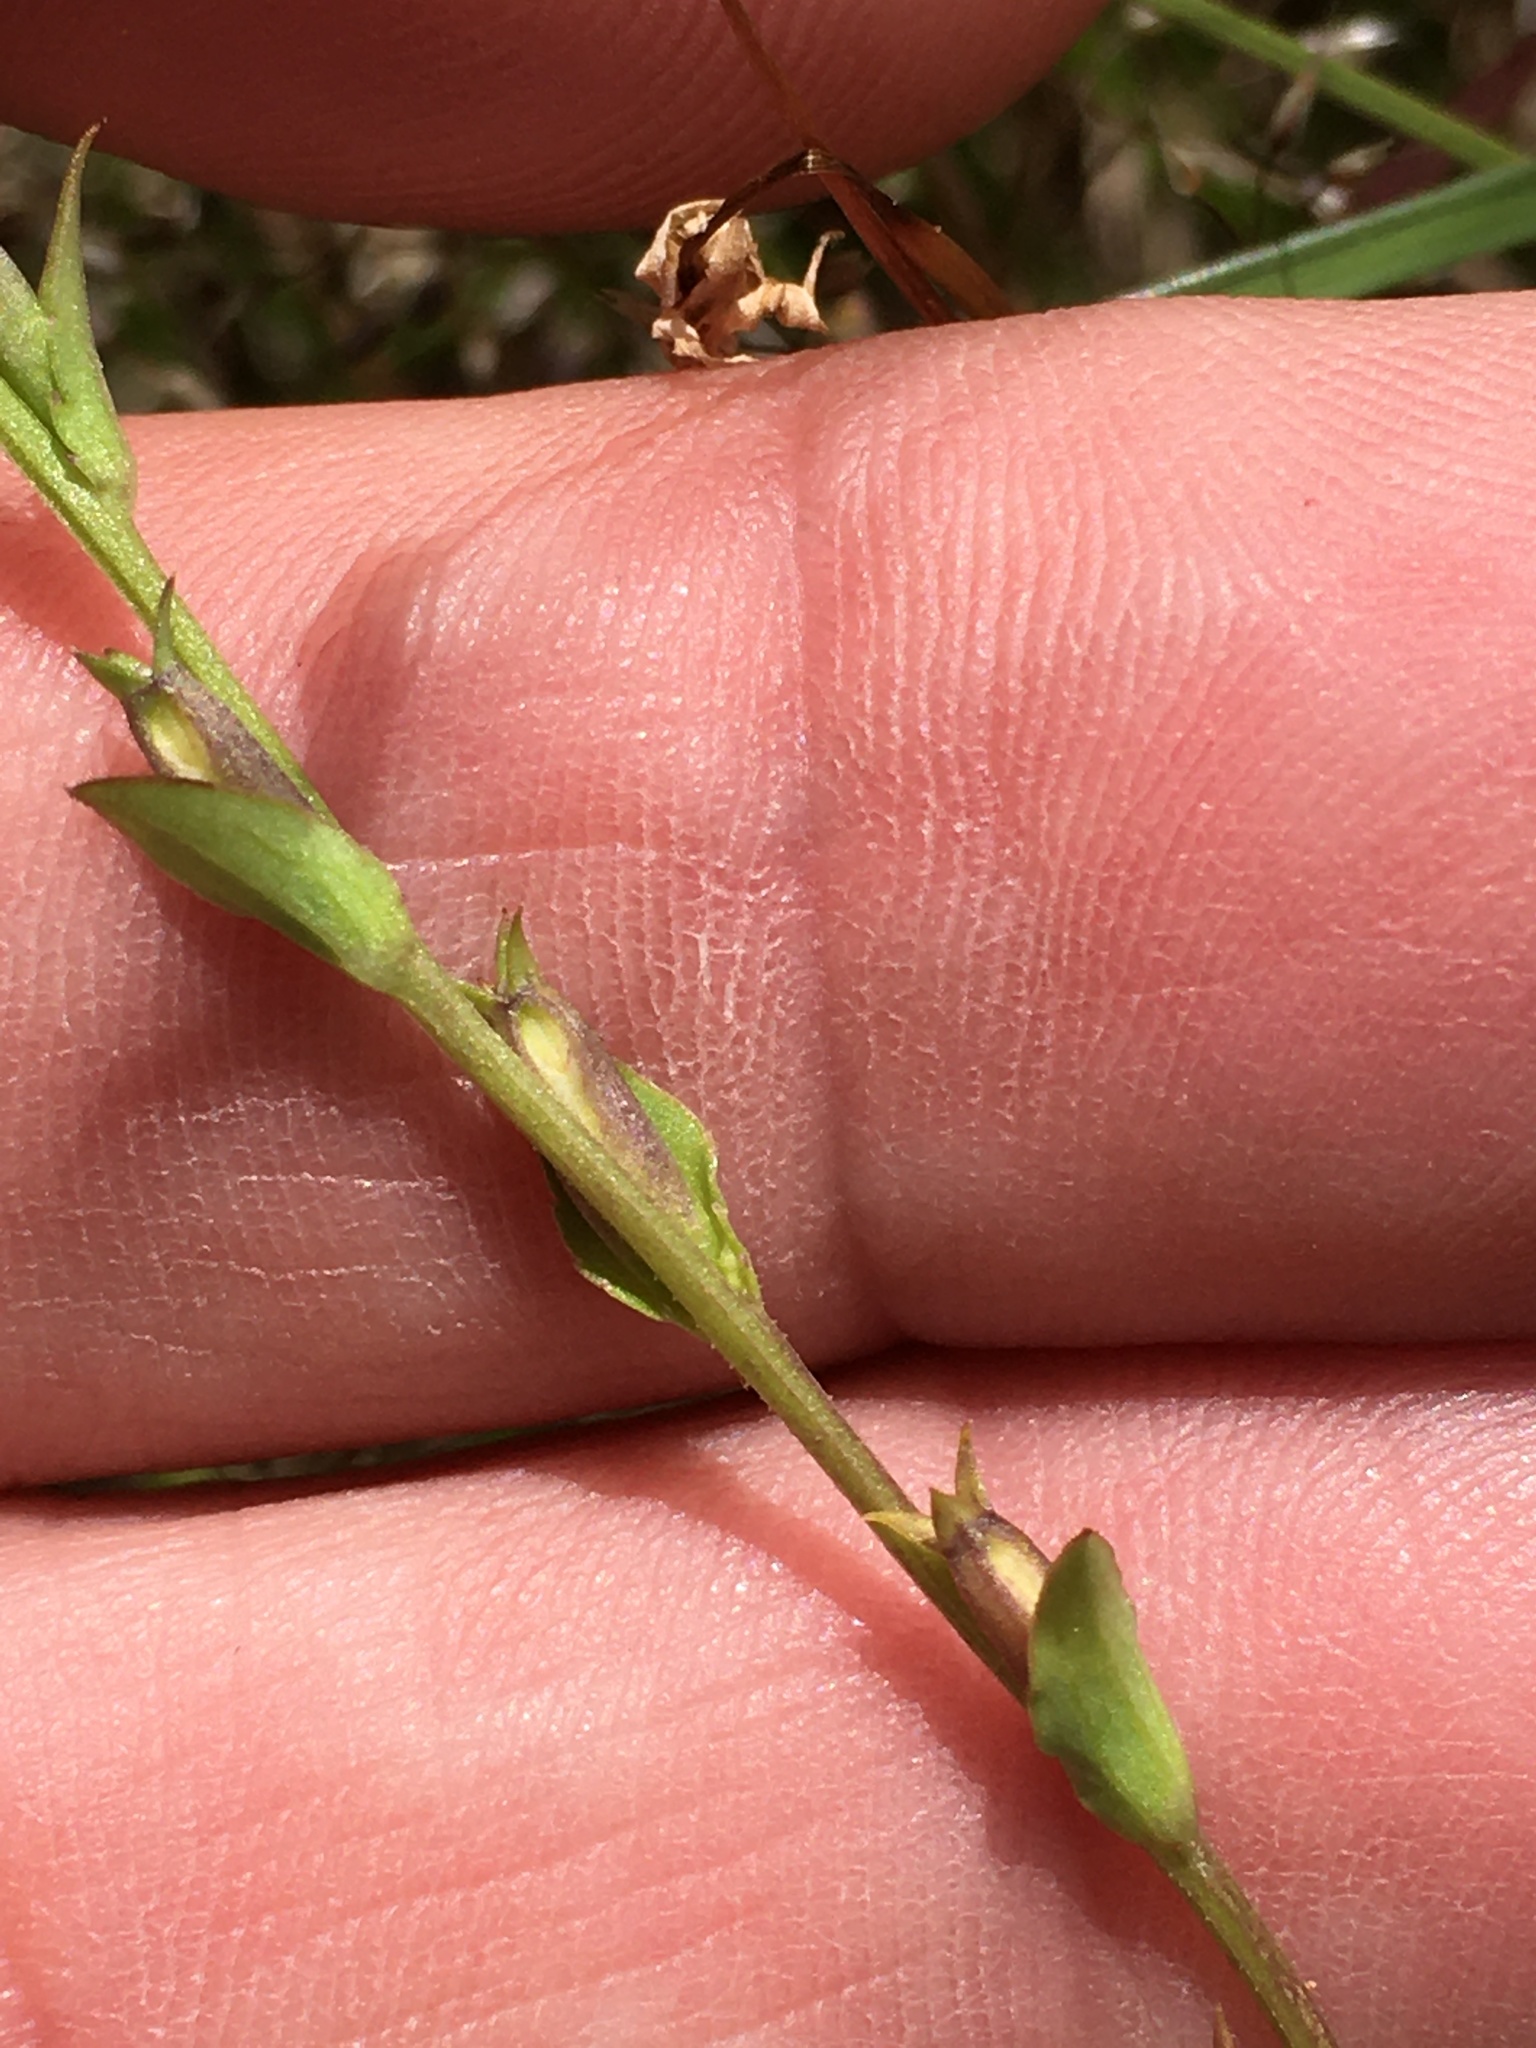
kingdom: Plantae
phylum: Tracheophyta
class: Magnoliopsida
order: Asterales
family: Campanulaceae
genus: Triodanis
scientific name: Triodanis biflora
